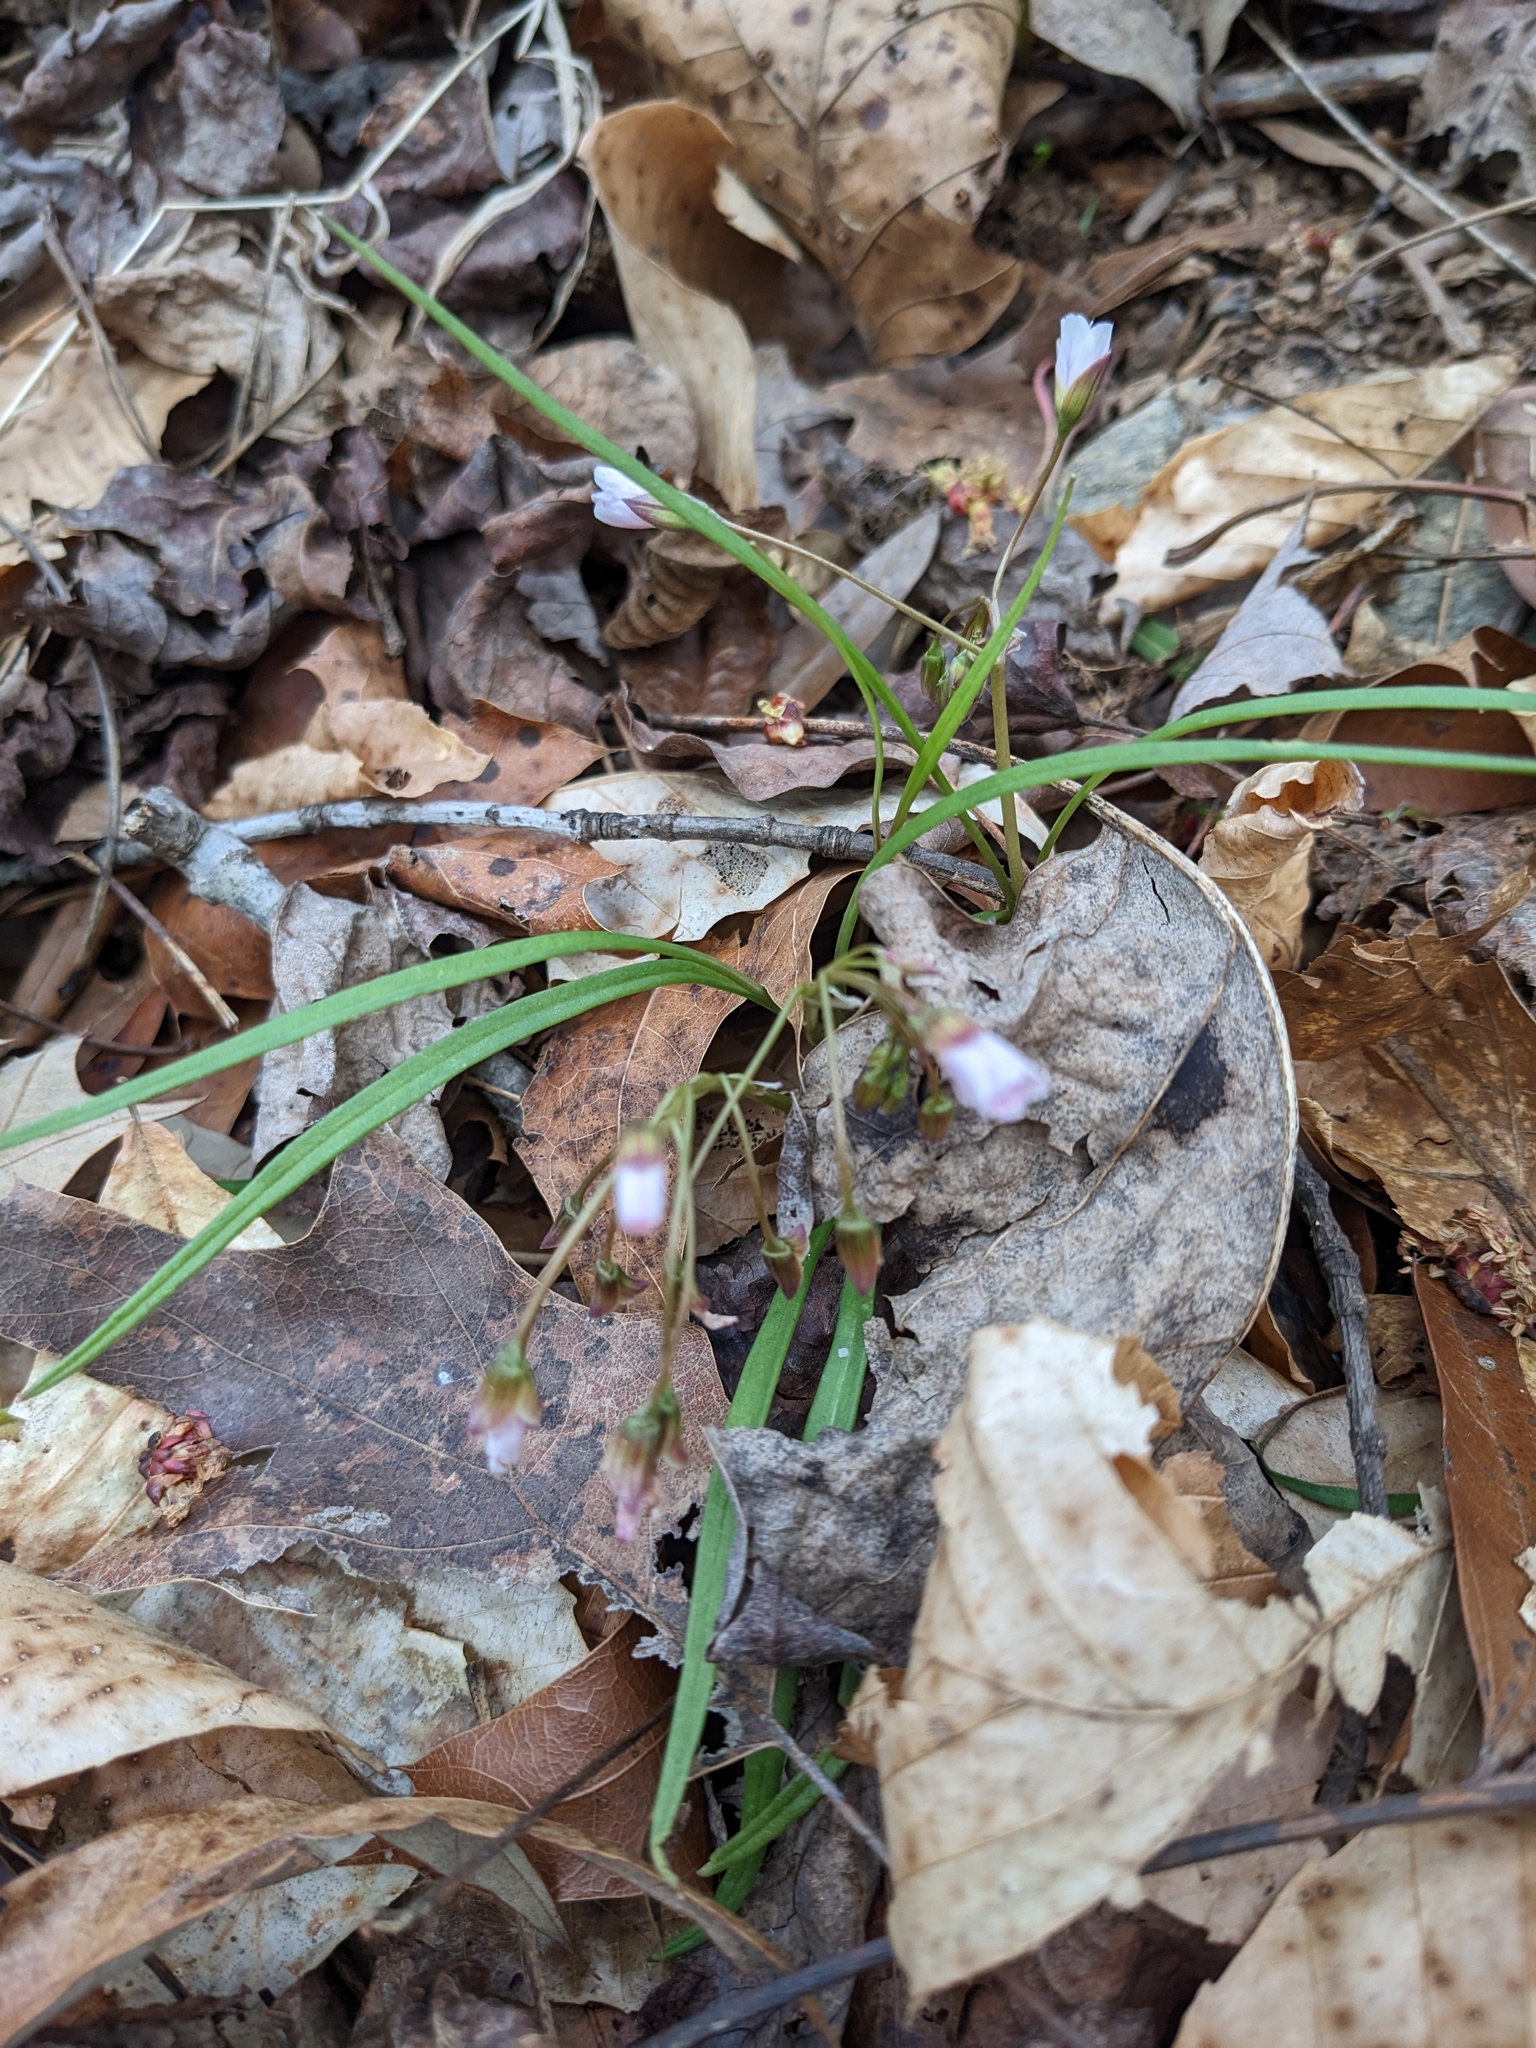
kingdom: Plantae
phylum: Tracheophyta
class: Magnoliopsida
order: Caryophyllales
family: Montiaceae
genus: Claytonia
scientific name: Claytonia virginica
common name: Virginia springbeauty
